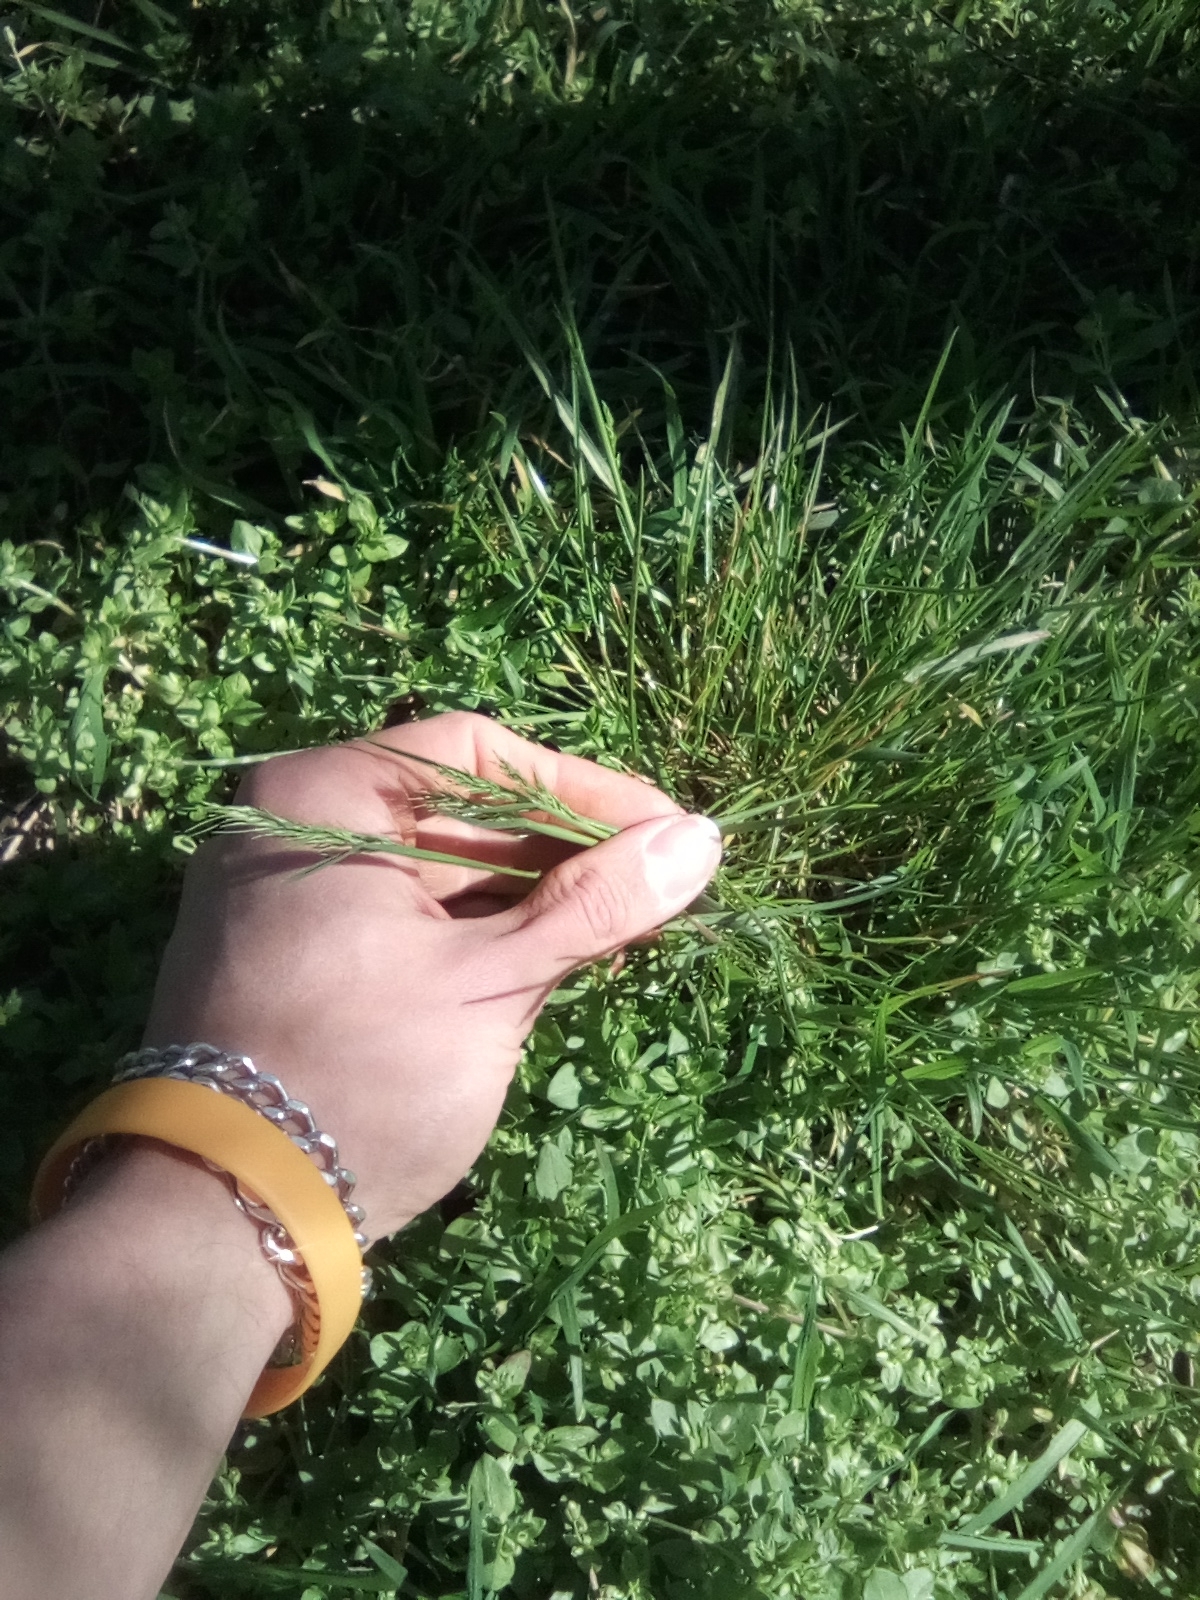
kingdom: Plantae
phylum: Tracheophyta
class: Liliopsida
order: Poales
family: Poaceae
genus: Poa
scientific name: Poa bulbosa
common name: Bulbous bluegrass
